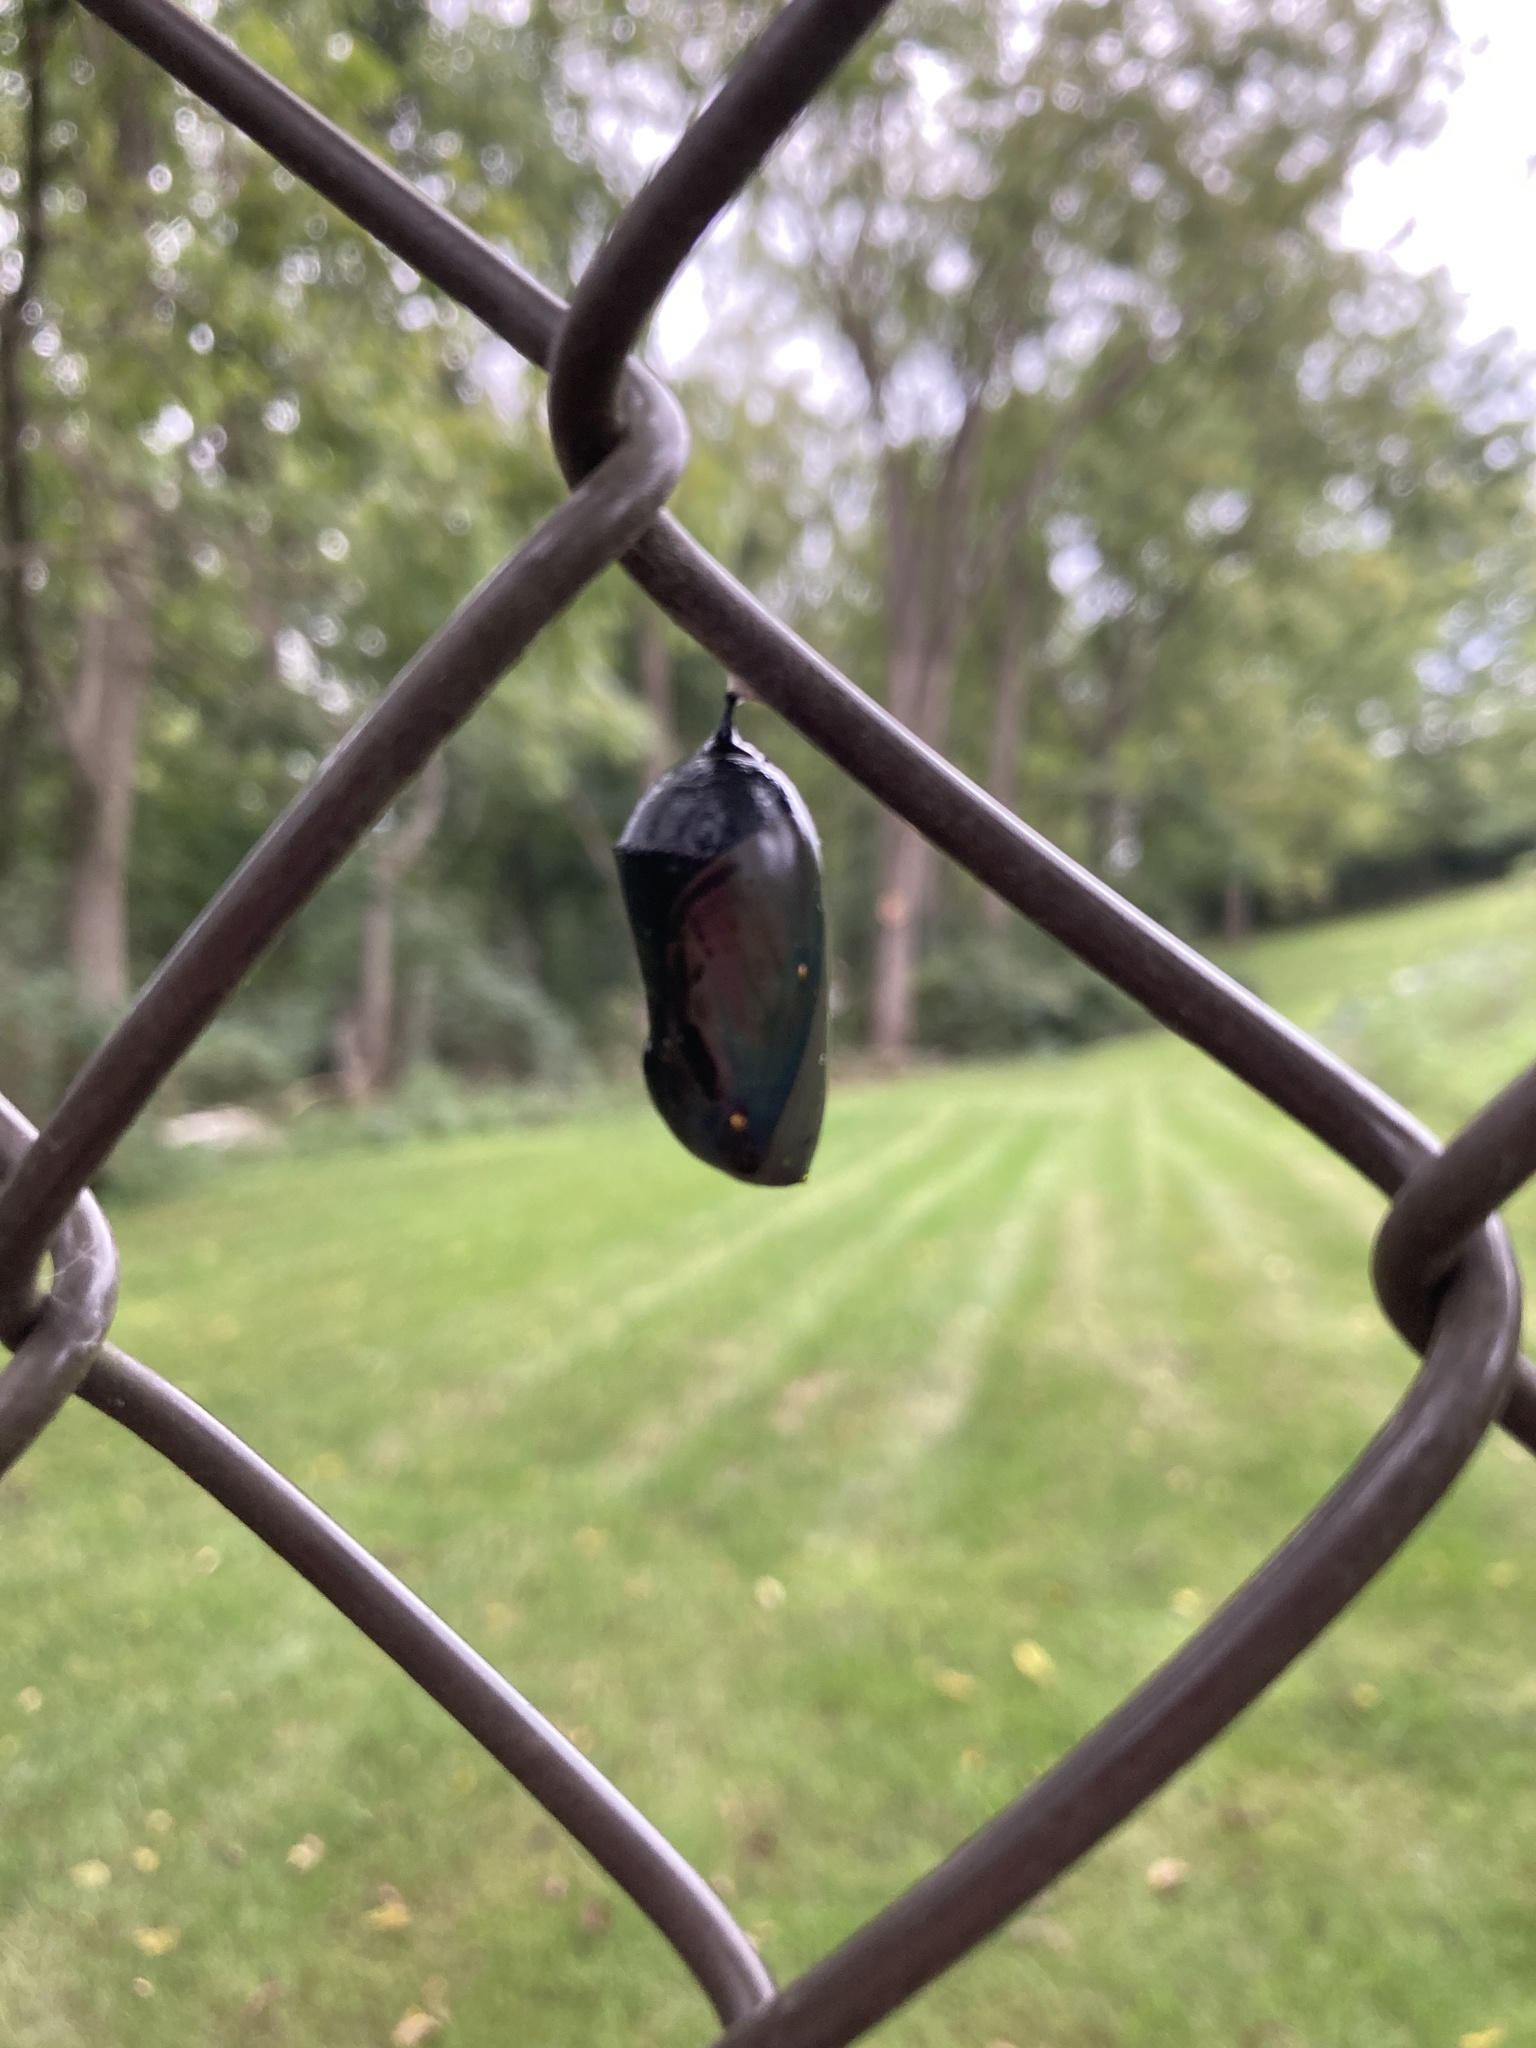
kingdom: Animalia
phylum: Arthropoda
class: Insecta
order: Lepidoptera
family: Nymphalidae
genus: Danaus
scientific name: Danaus plexippus
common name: Monarch
